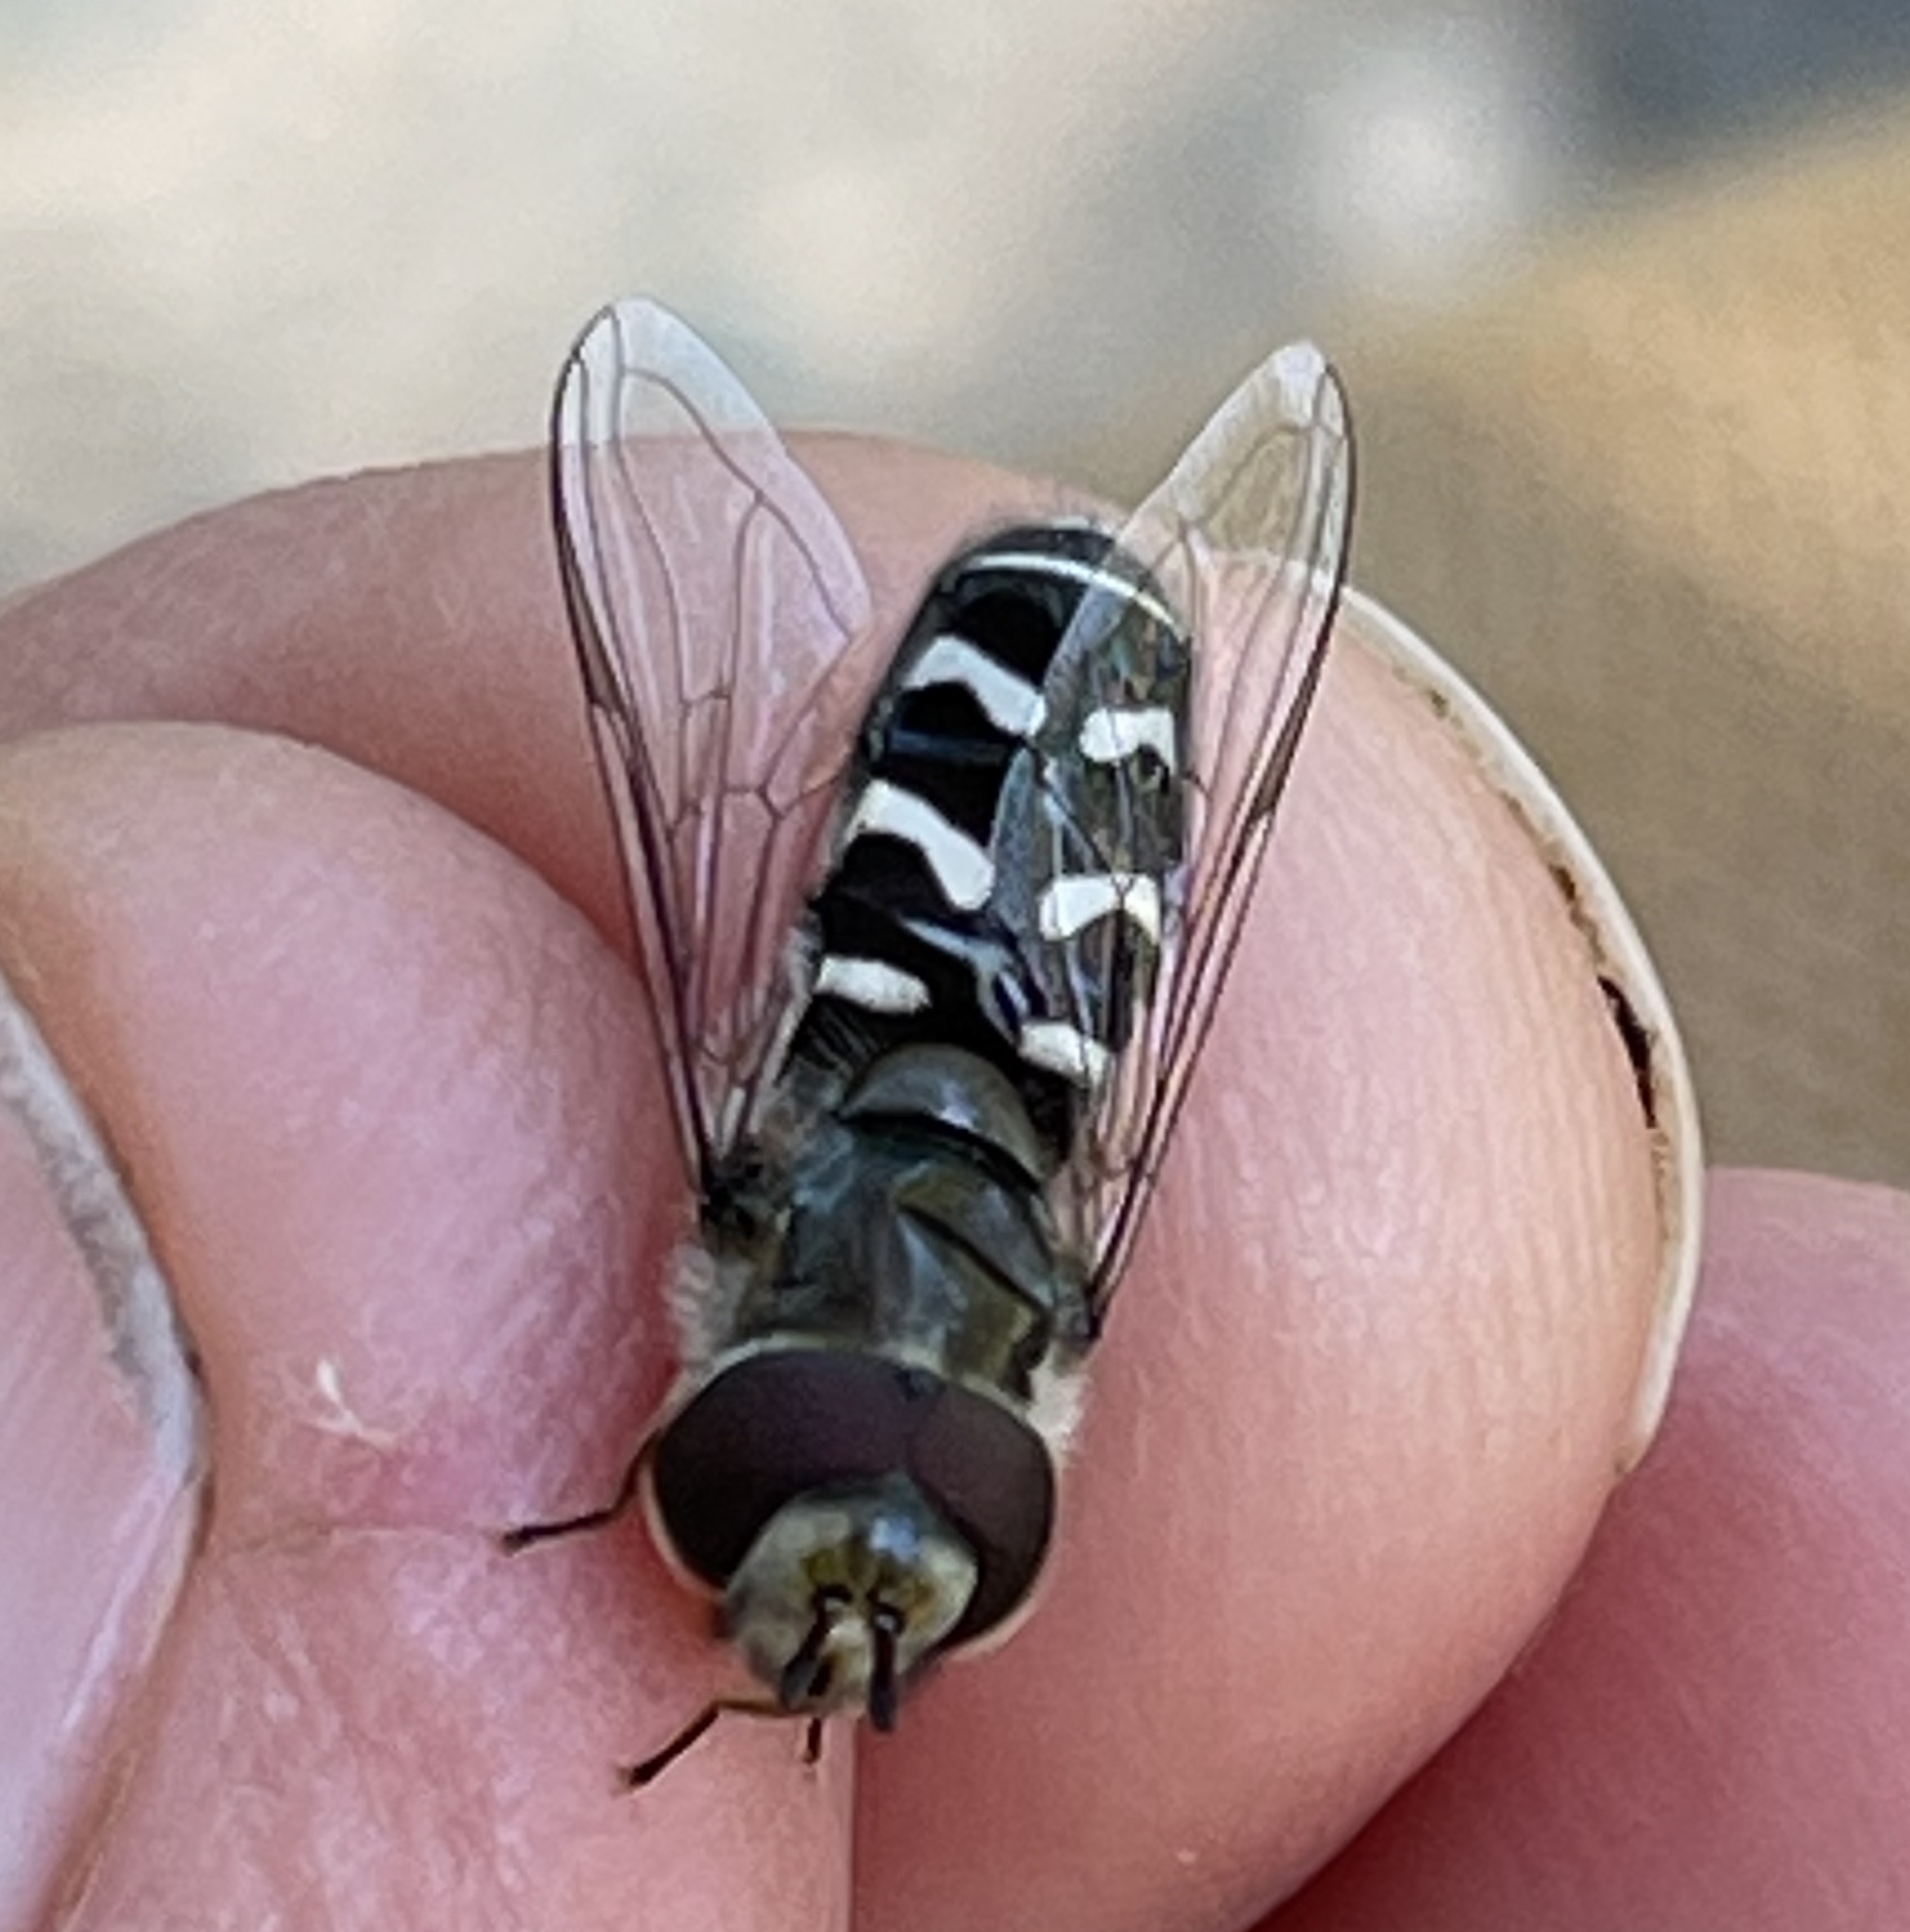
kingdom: Animalia
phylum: Arthropoda
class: Insecta
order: Diptera
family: Syrphidae
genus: Scaeva
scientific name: Scaeva affinis
